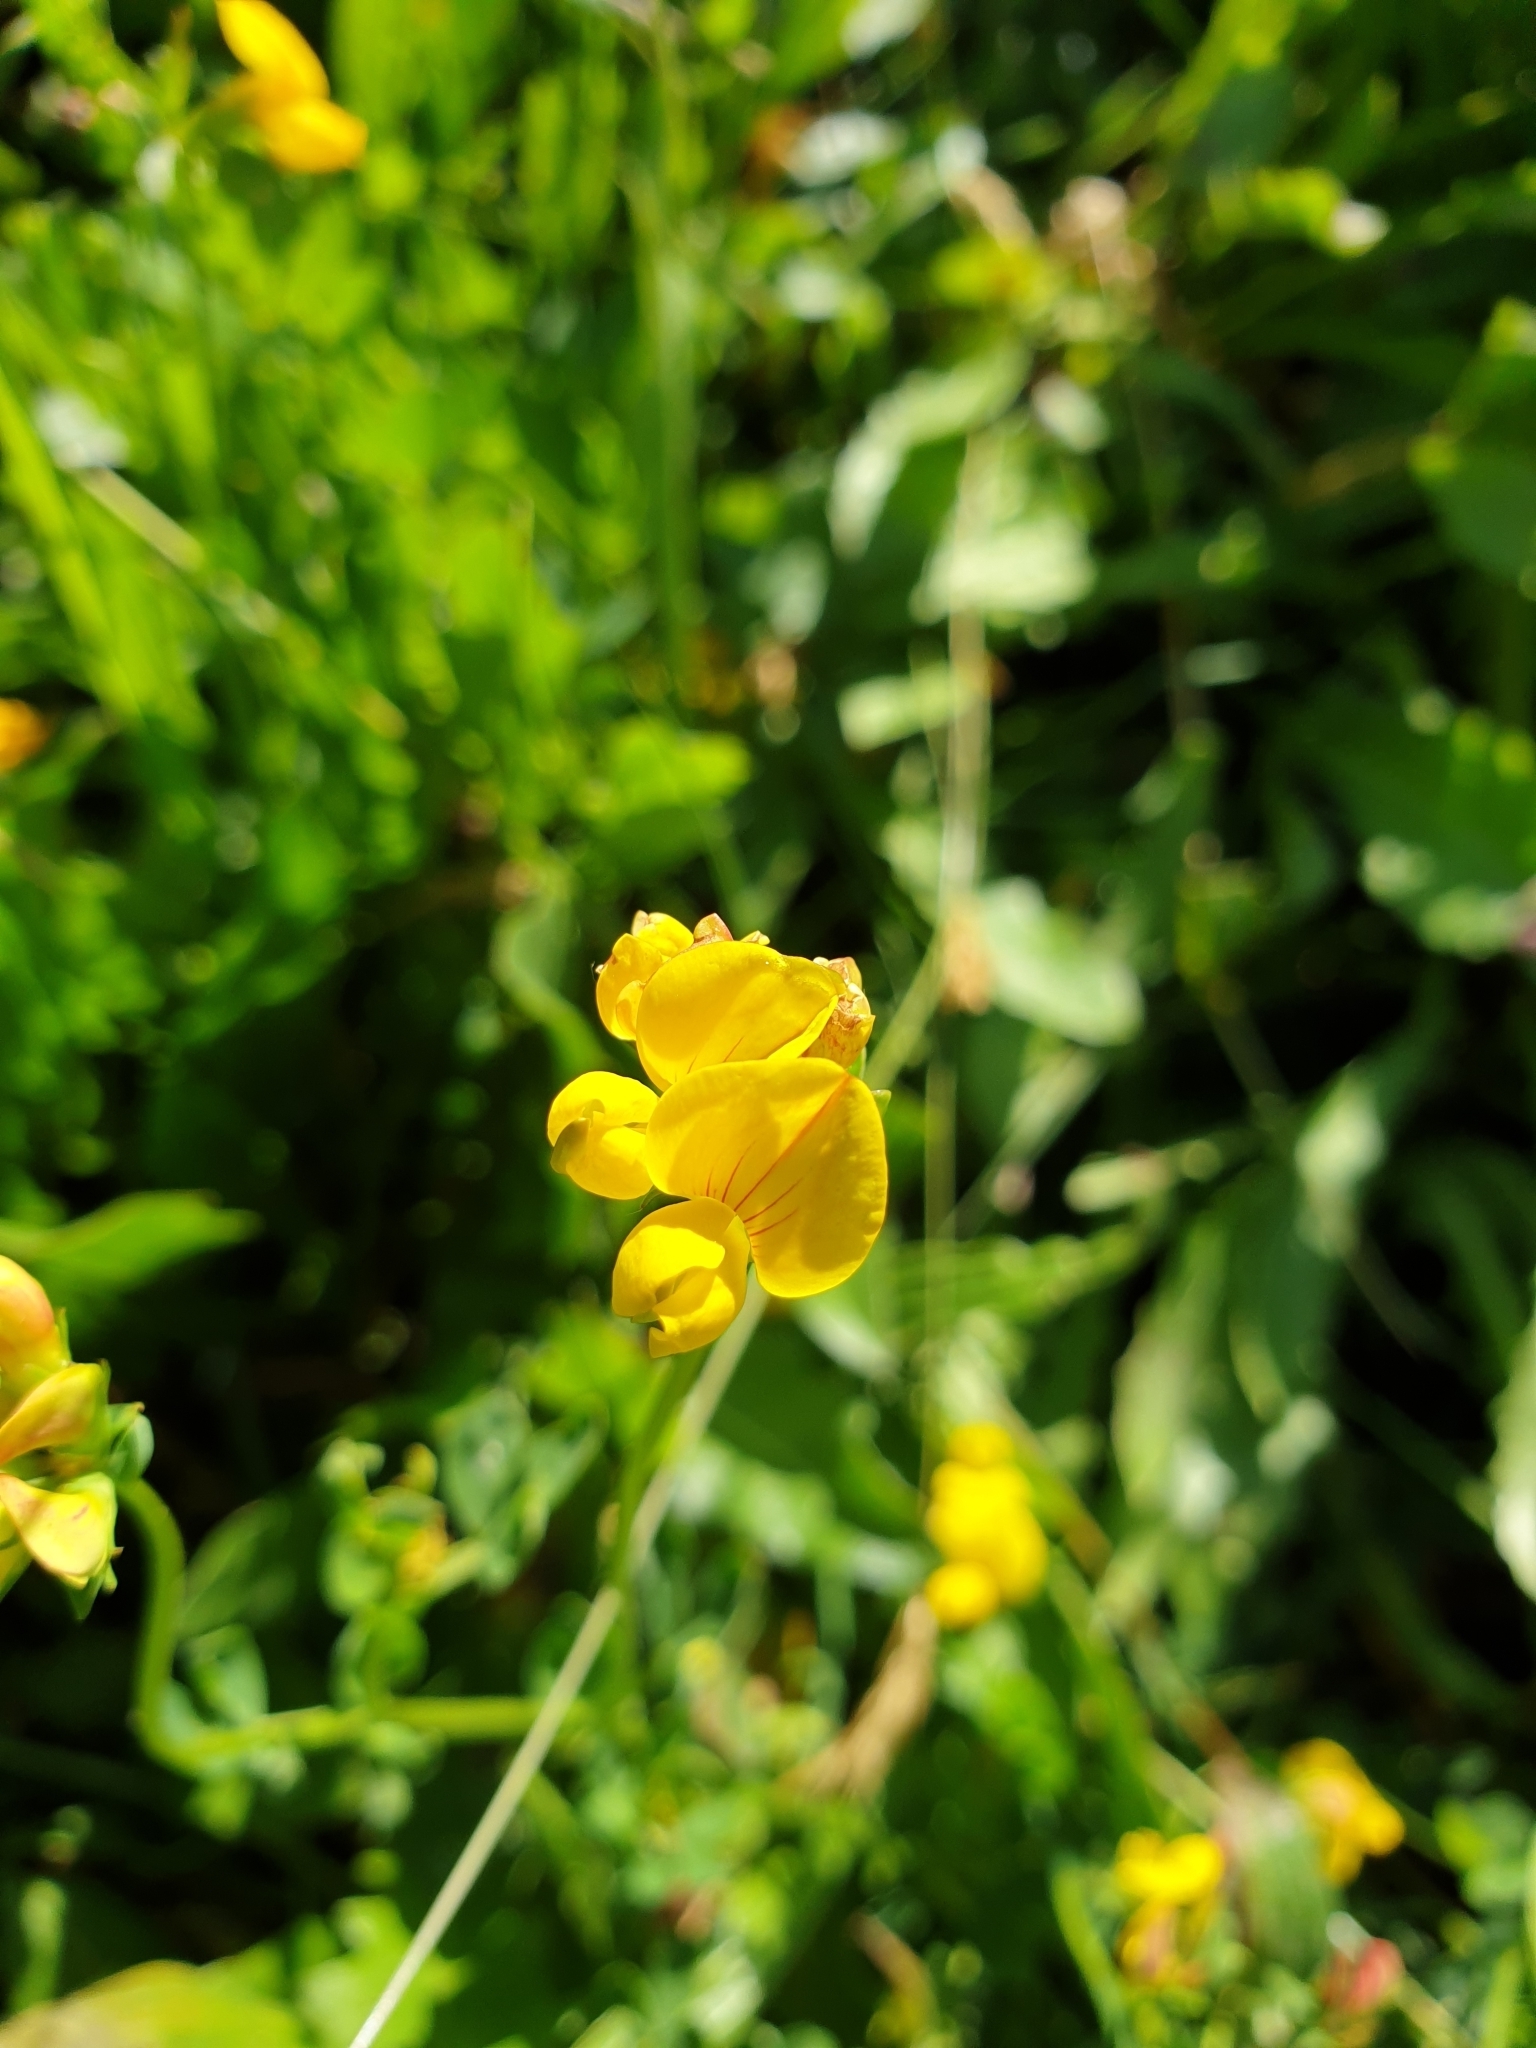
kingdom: Plantae
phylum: Tracheophyta
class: Magnoliopsida
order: Fabales
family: Fabaceae
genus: Lotus
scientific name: Lotus corniculatus
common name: Common bird's-foot-trefoil
